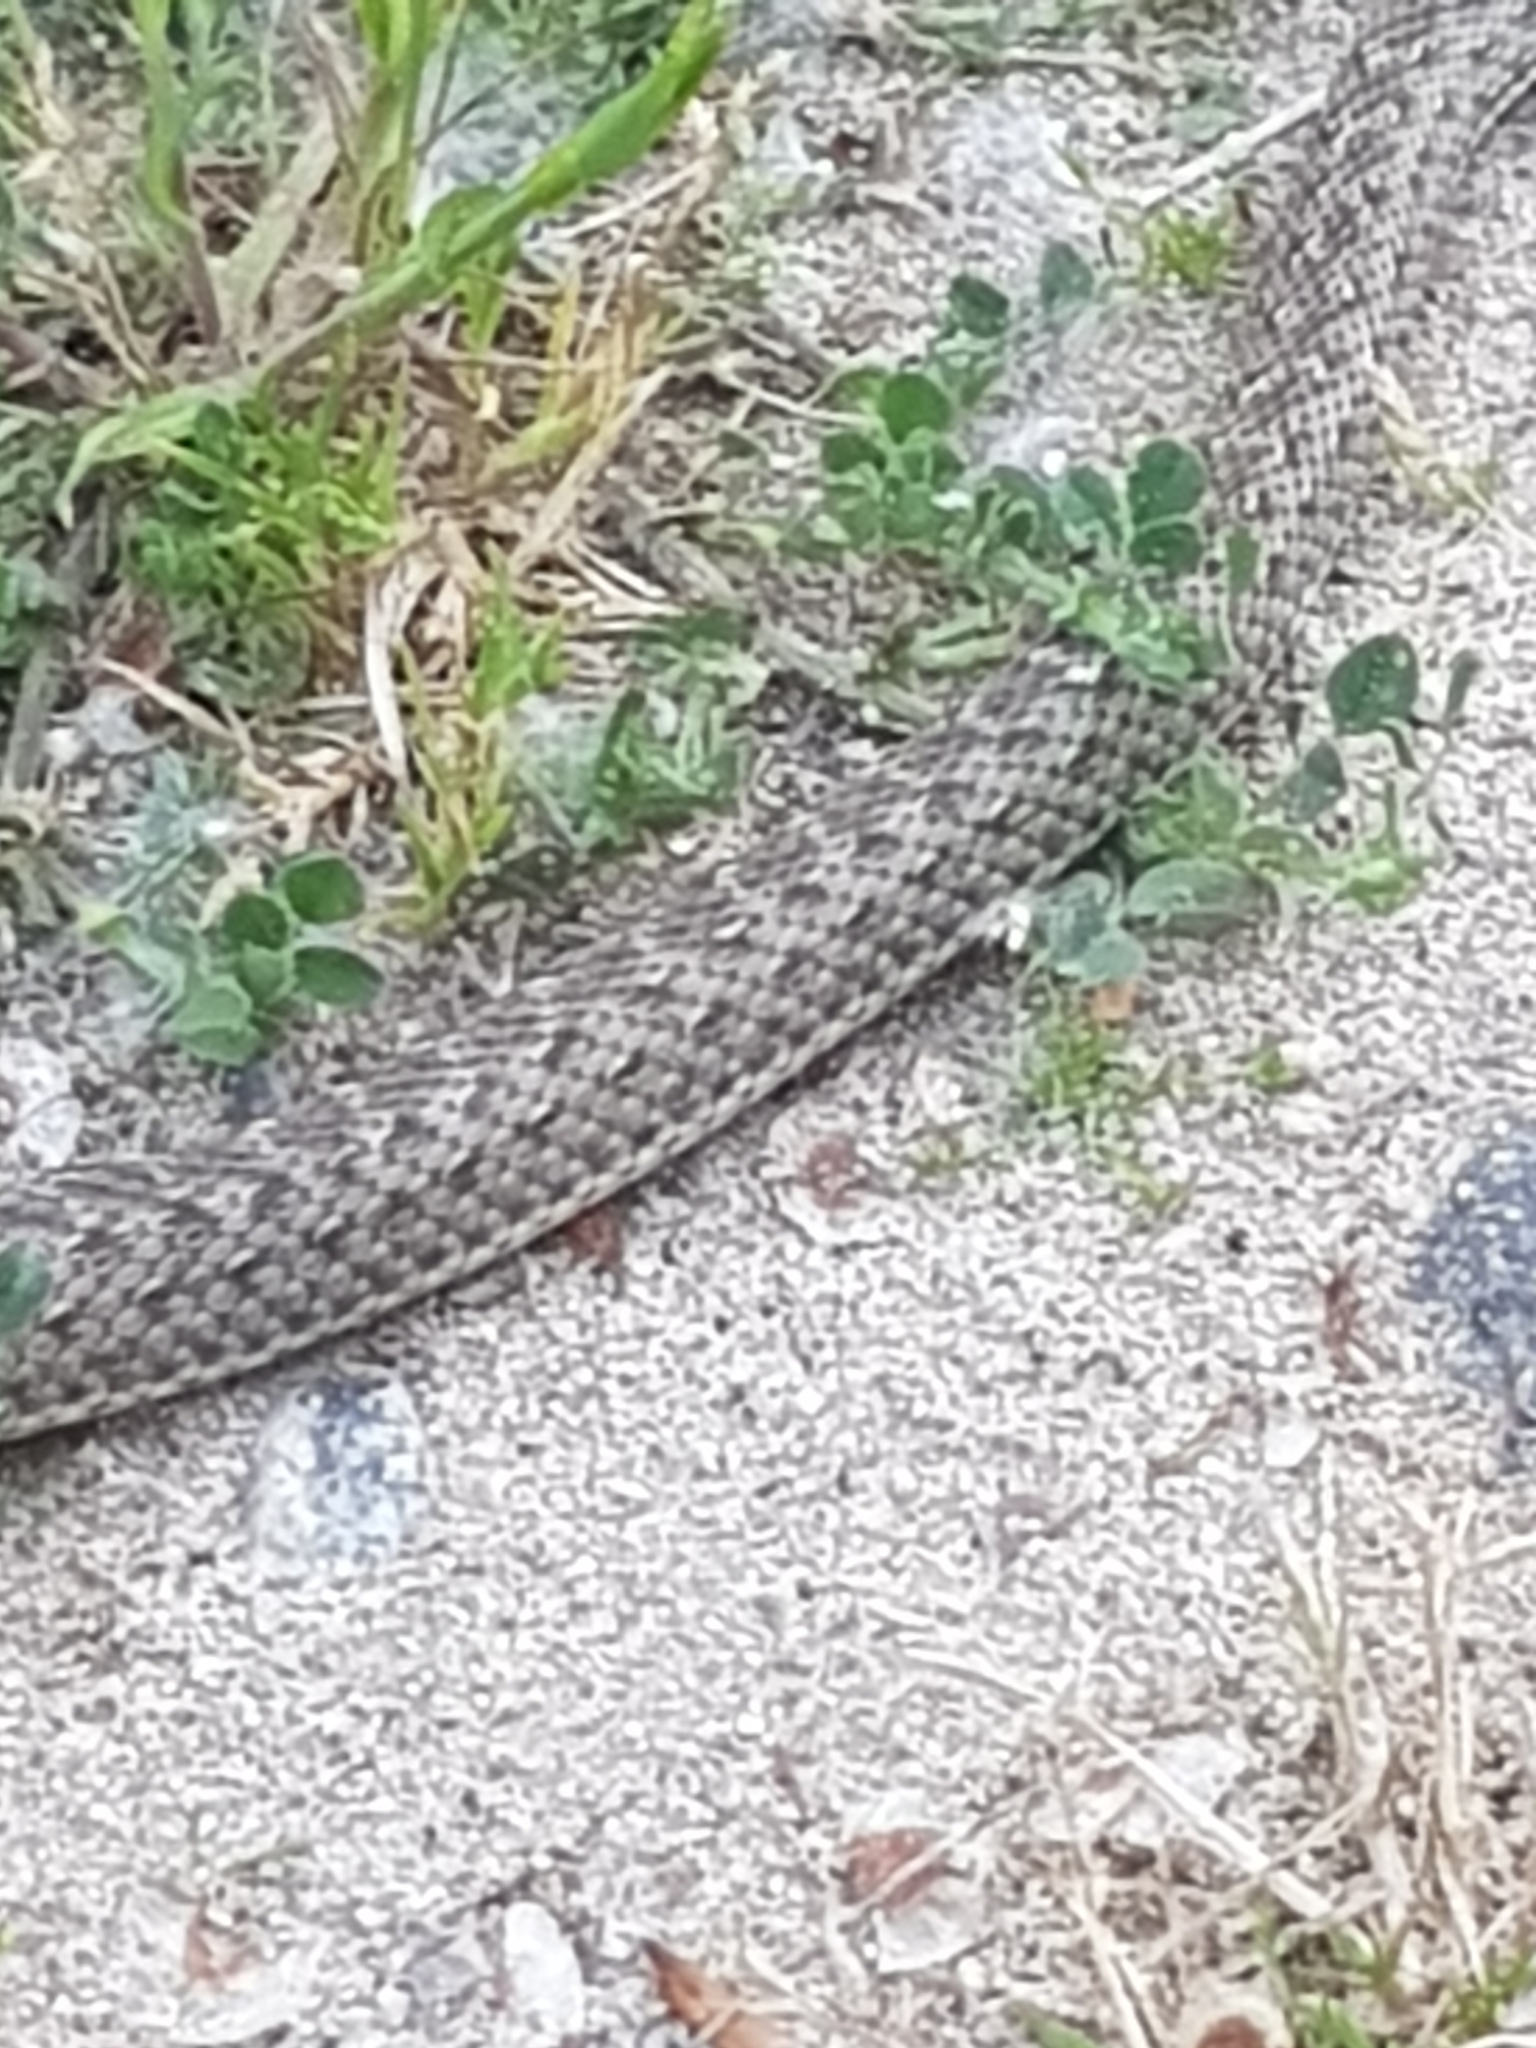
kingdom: Animalia
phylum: Chordata
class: Squamata
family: Psammophiidae
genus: Malpolon
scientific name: Malpolon monspessulanus
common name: Montpellier snake
